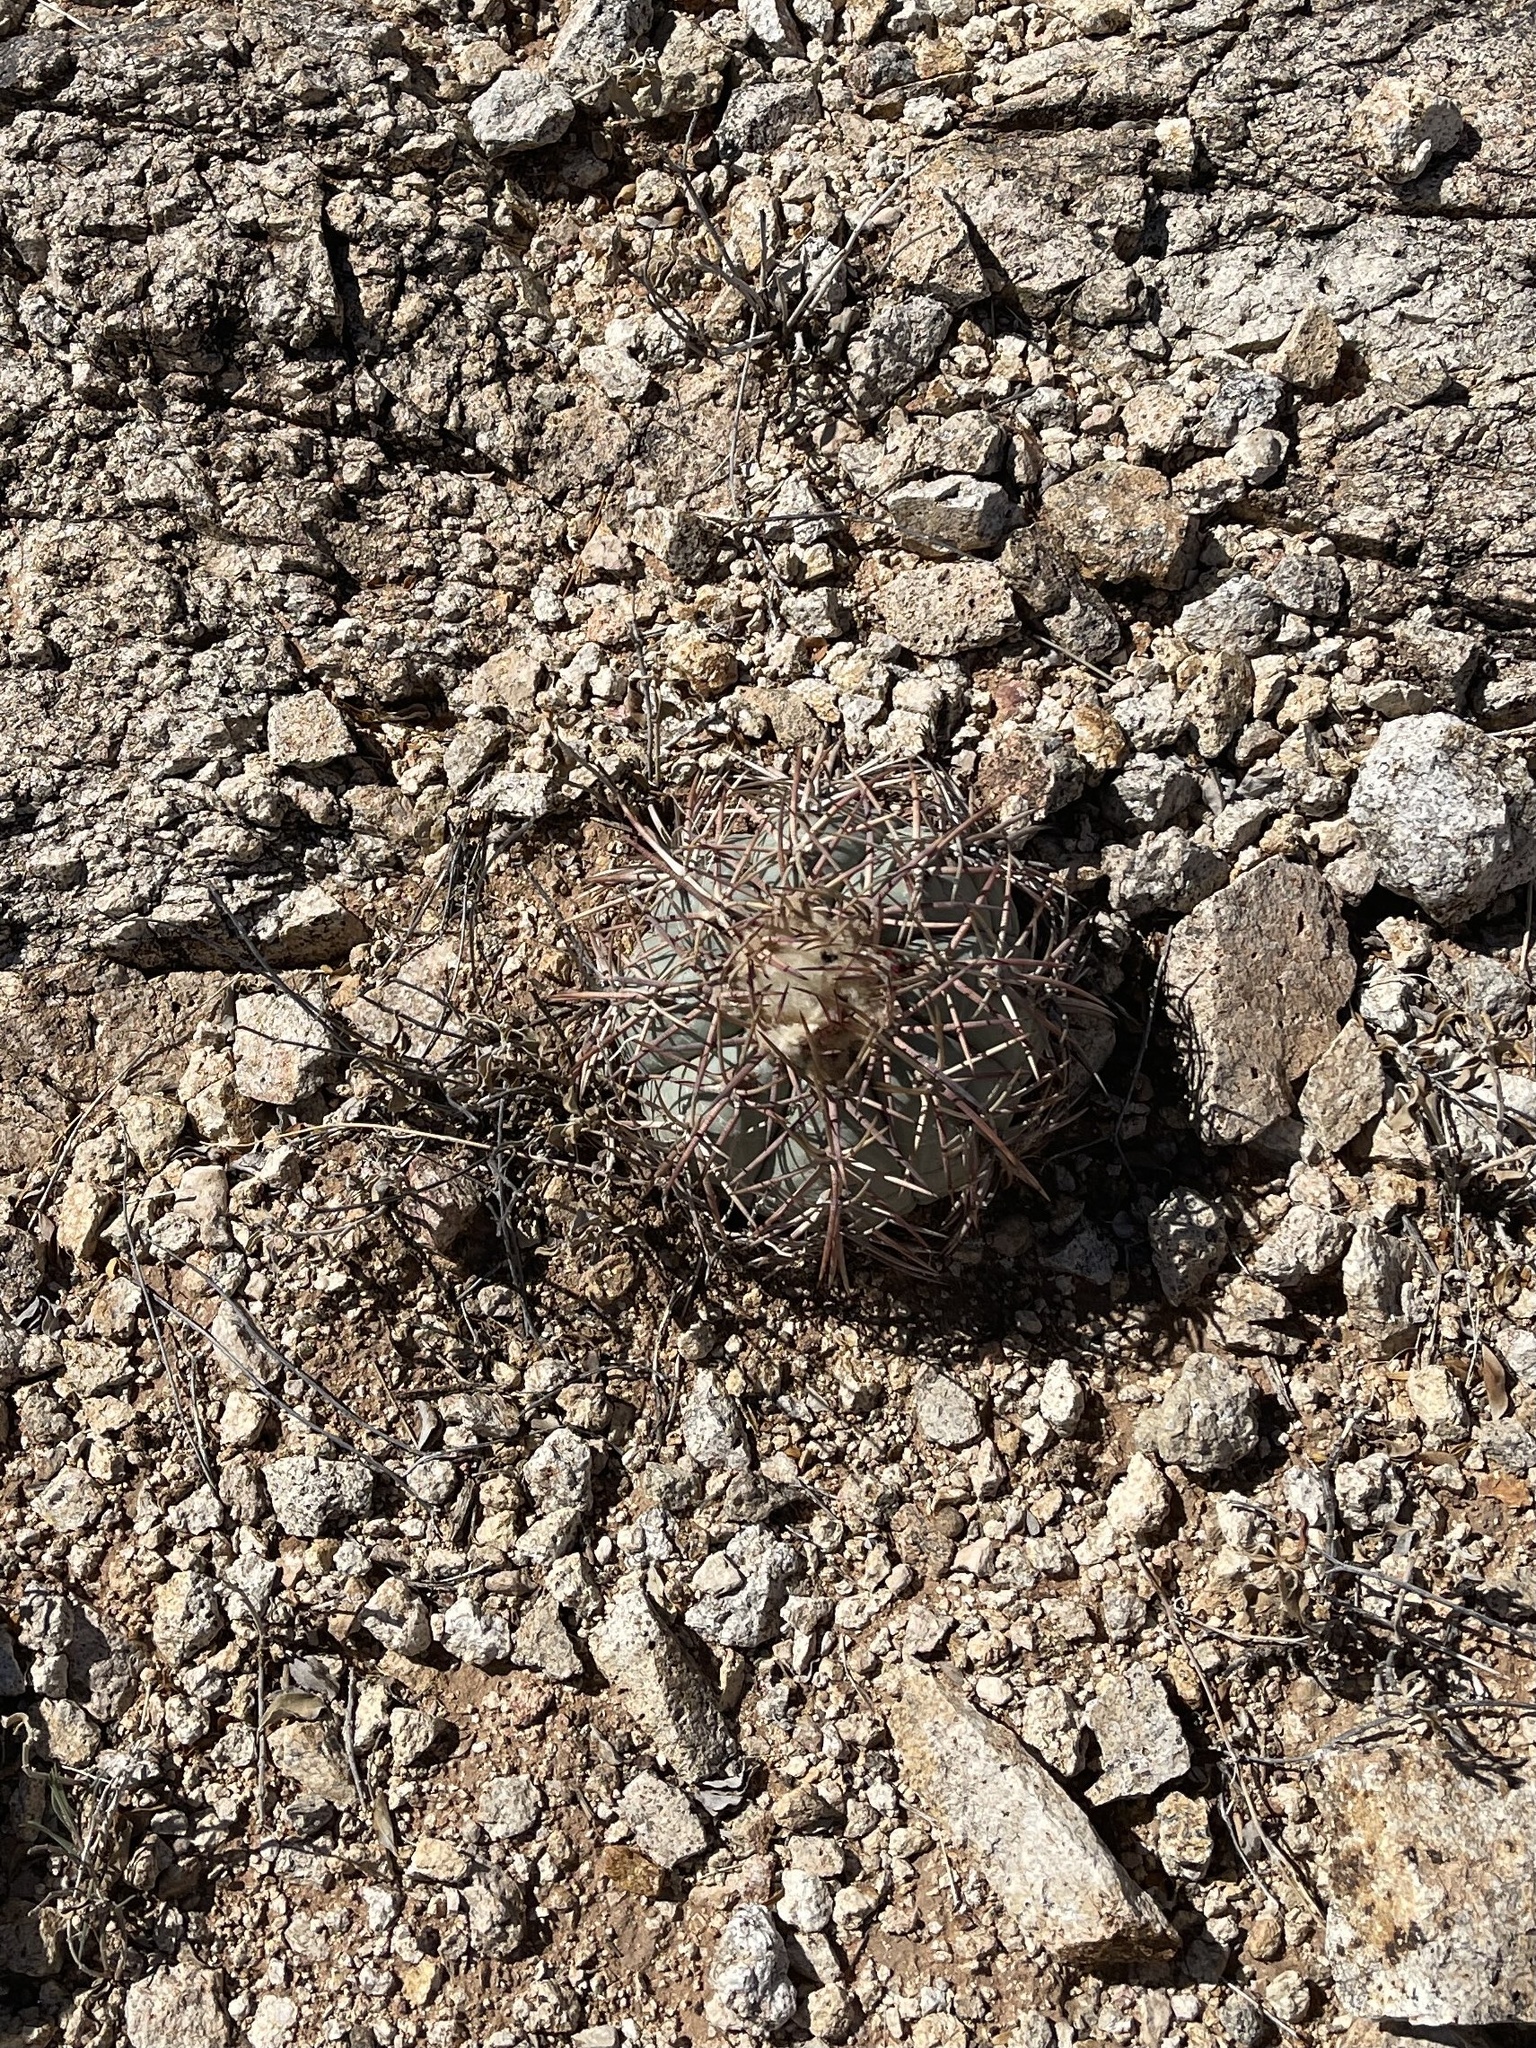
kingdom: Plantae
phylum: Tracheophyta
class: Magnoliopsida
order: Caryophyllales
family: Cactaceae
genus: Echinocactus
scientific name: Echinocactus horizonthalonius
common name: Devilshead
